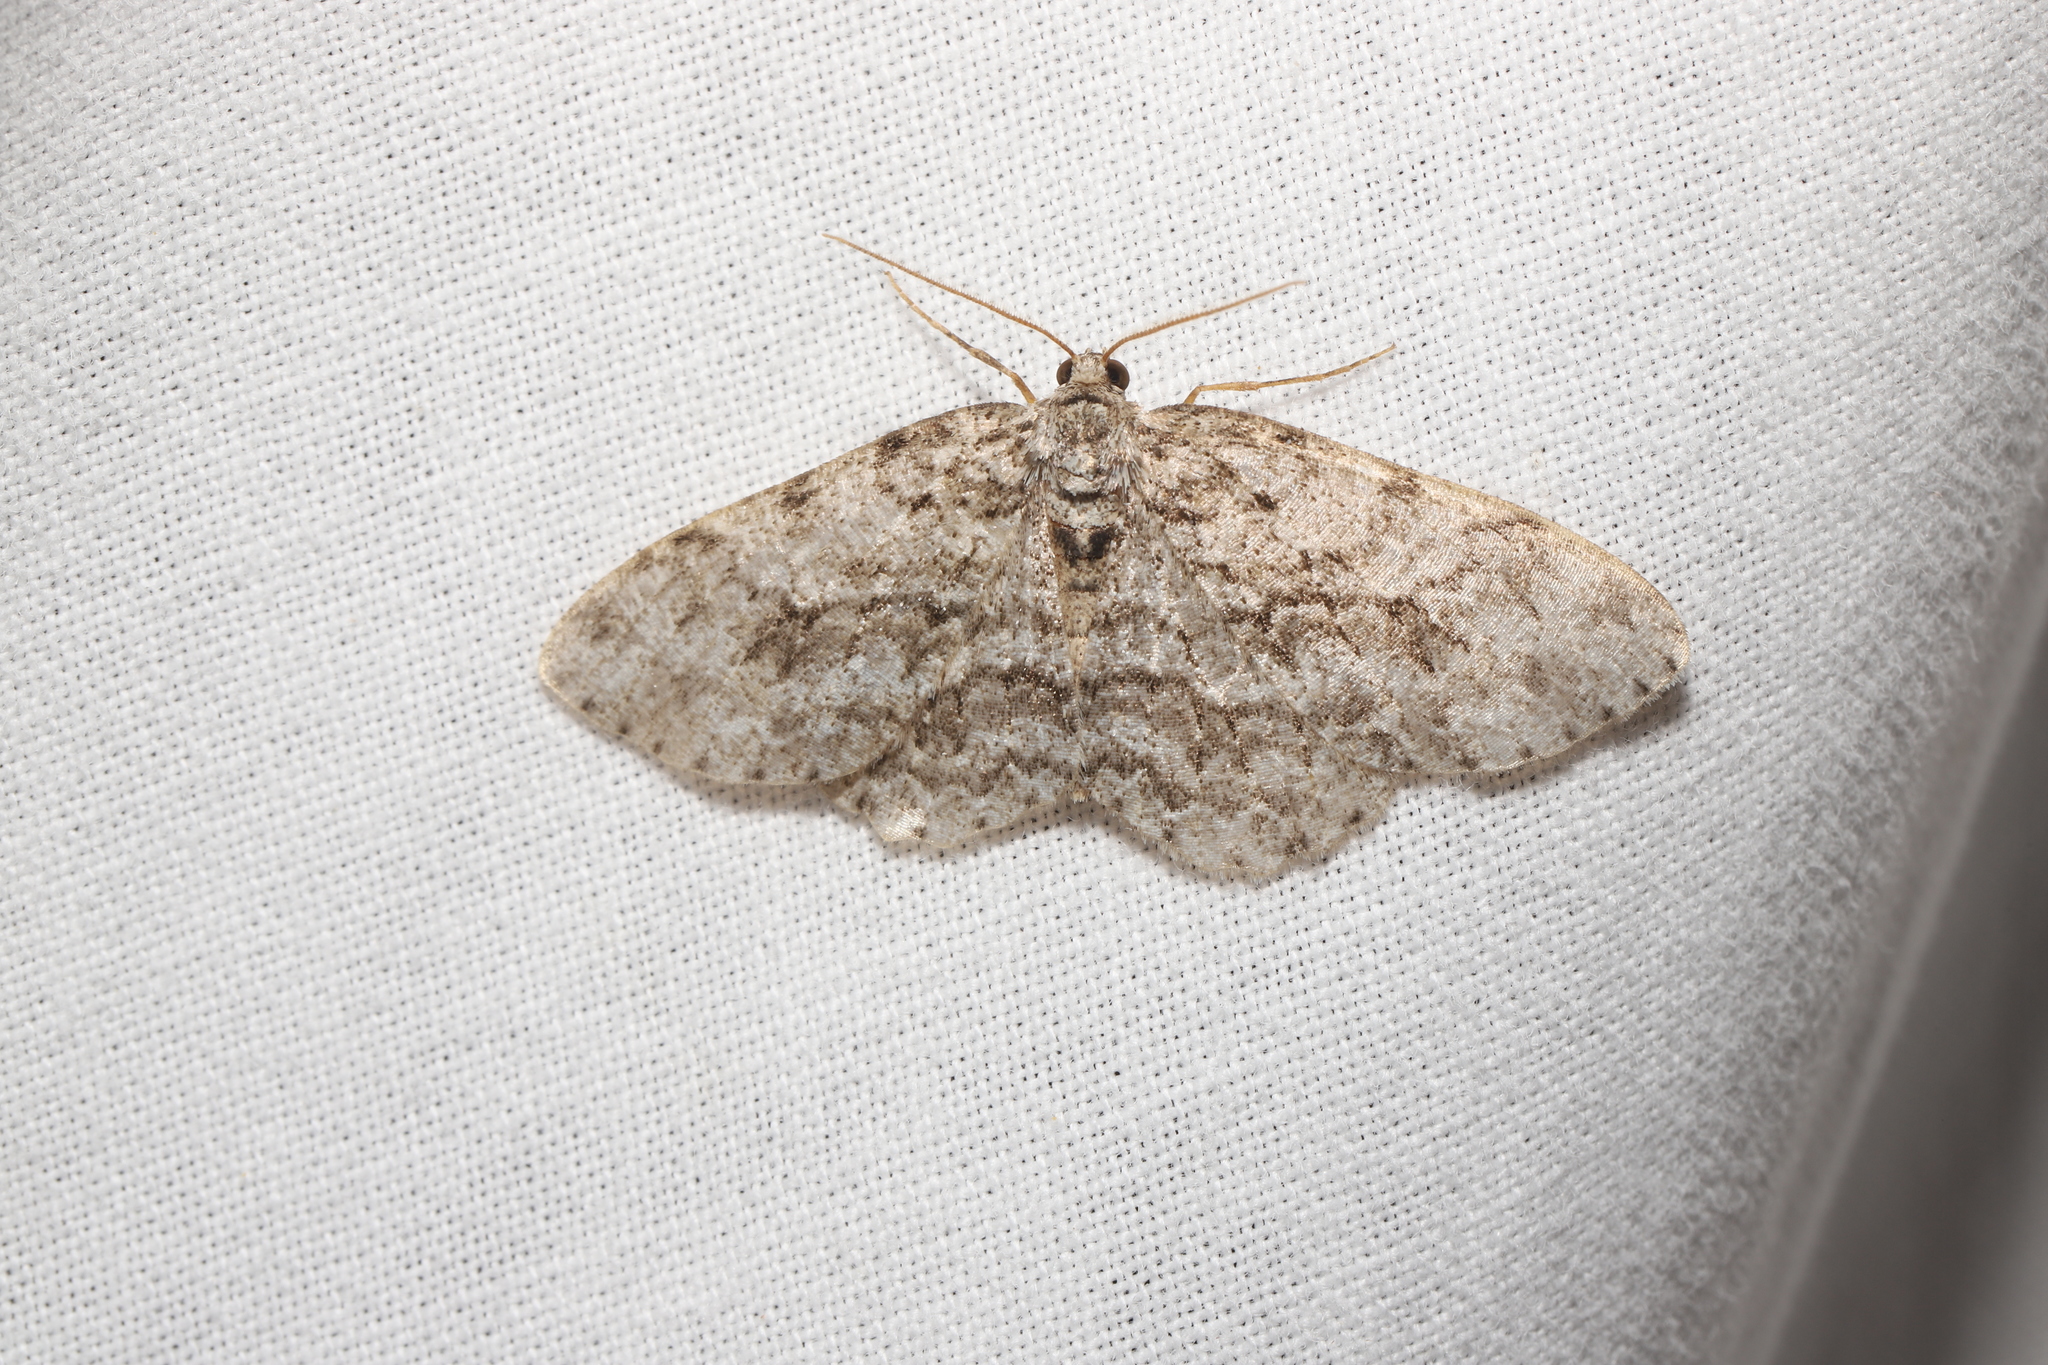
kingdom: Animalia
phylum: Arthropoda
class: Insecta
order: Lepidoptera
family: Geometridae
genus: Ectropis
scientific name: Ectropis crepuscularia
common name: Engrailed
